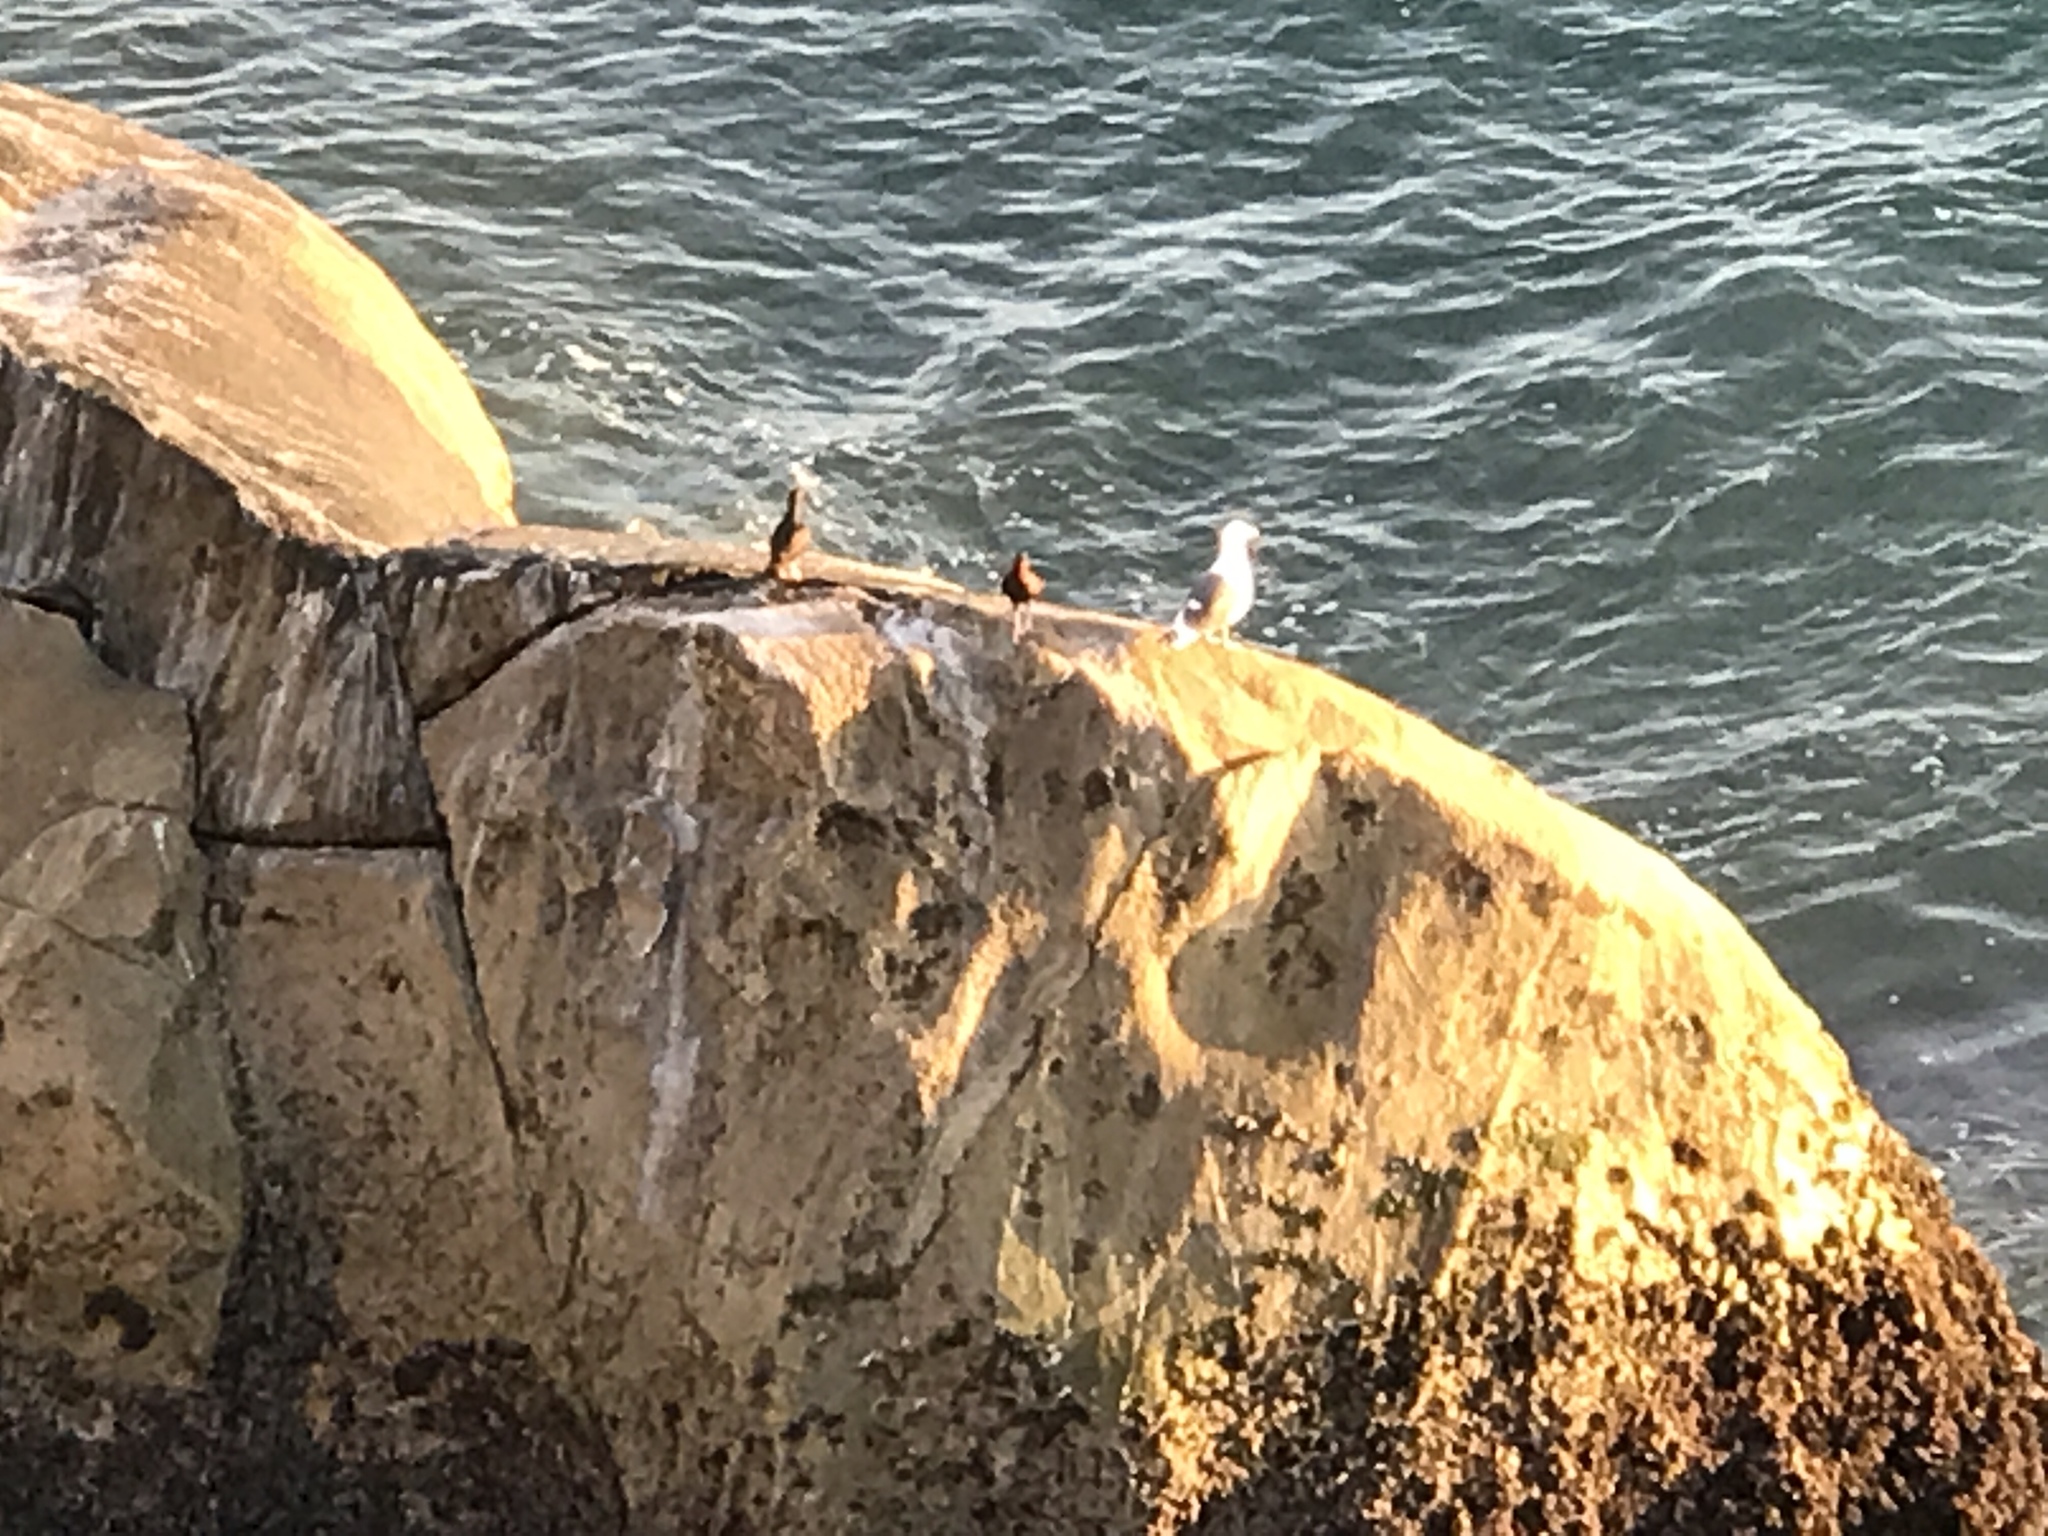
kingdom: Animalia
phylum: Chordata
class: Aves
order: Charadriiformes
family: Haematopodidae
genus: Haematopus
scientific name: Haematopus bachmani
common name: Black oystercatcher
